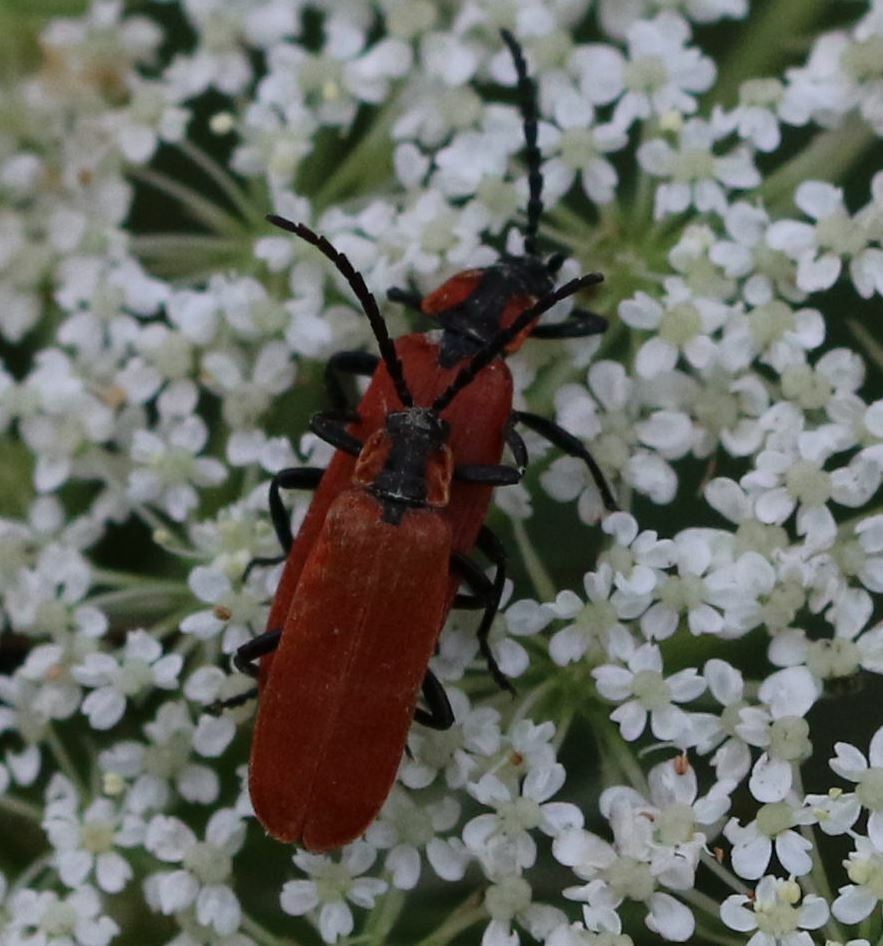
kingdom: Animalia
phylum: Arthropoda
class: Insecta
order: Coleoptera
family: Lycidae
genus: Lygistopterus
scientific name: Lygistopterus sanguineus
